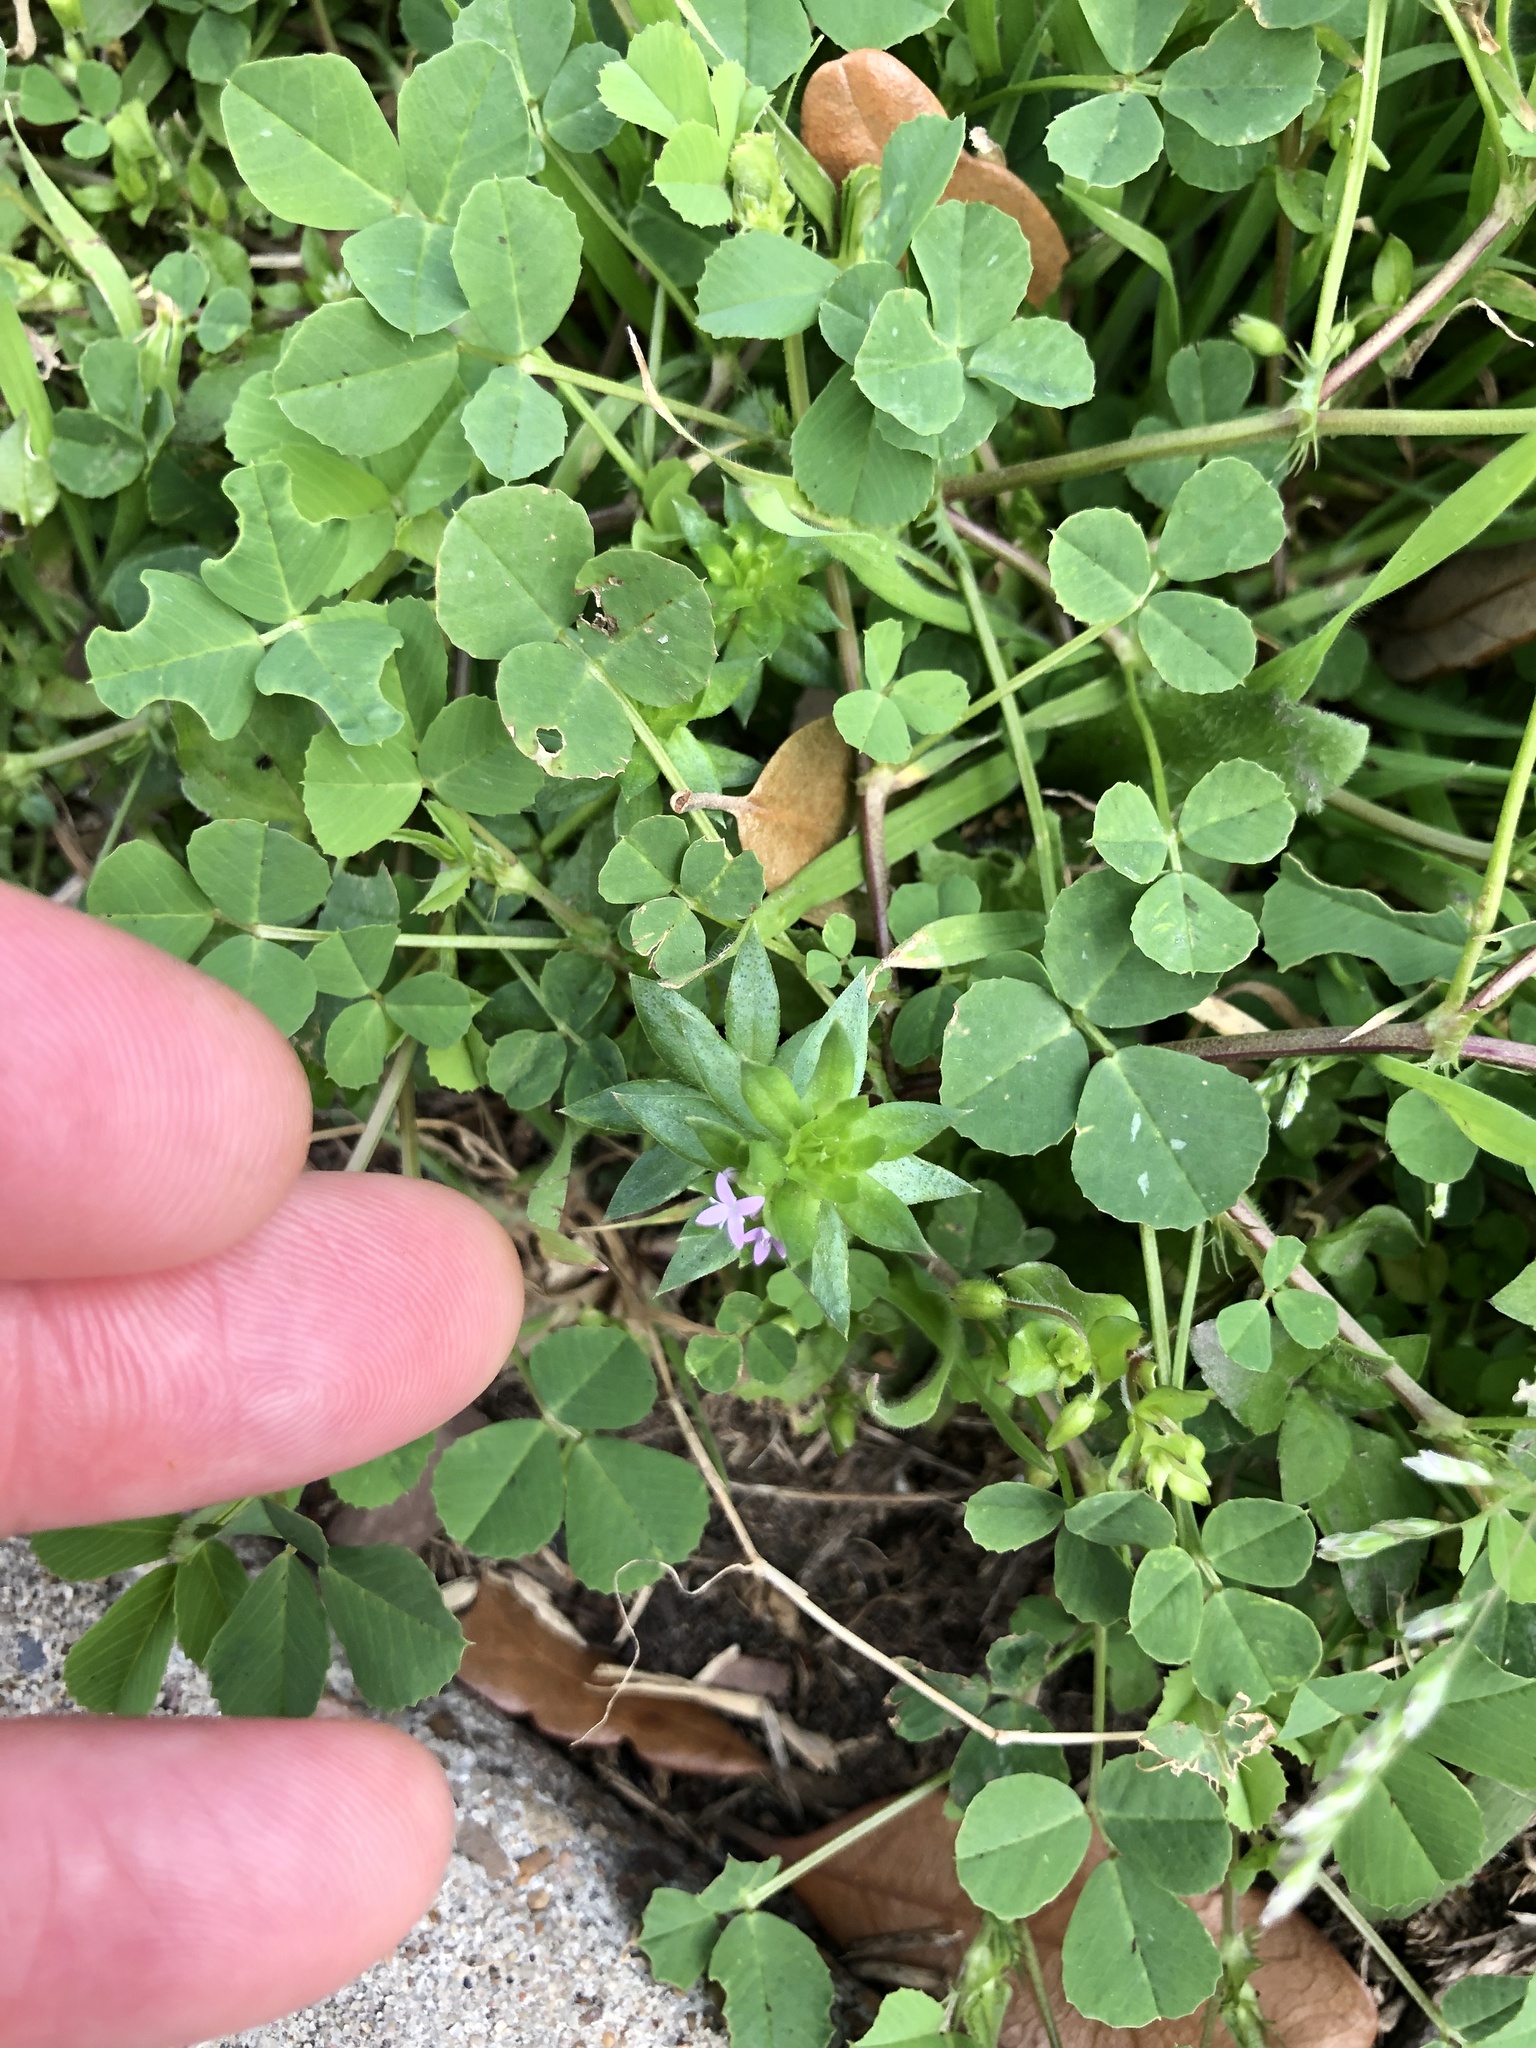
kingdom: Plantae
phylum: Tracheophyta
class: Magnoliopsida
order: Gentianales
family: Rubiaceae
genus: Sherardia
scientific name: Sherardia arvensis
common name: Field madder
